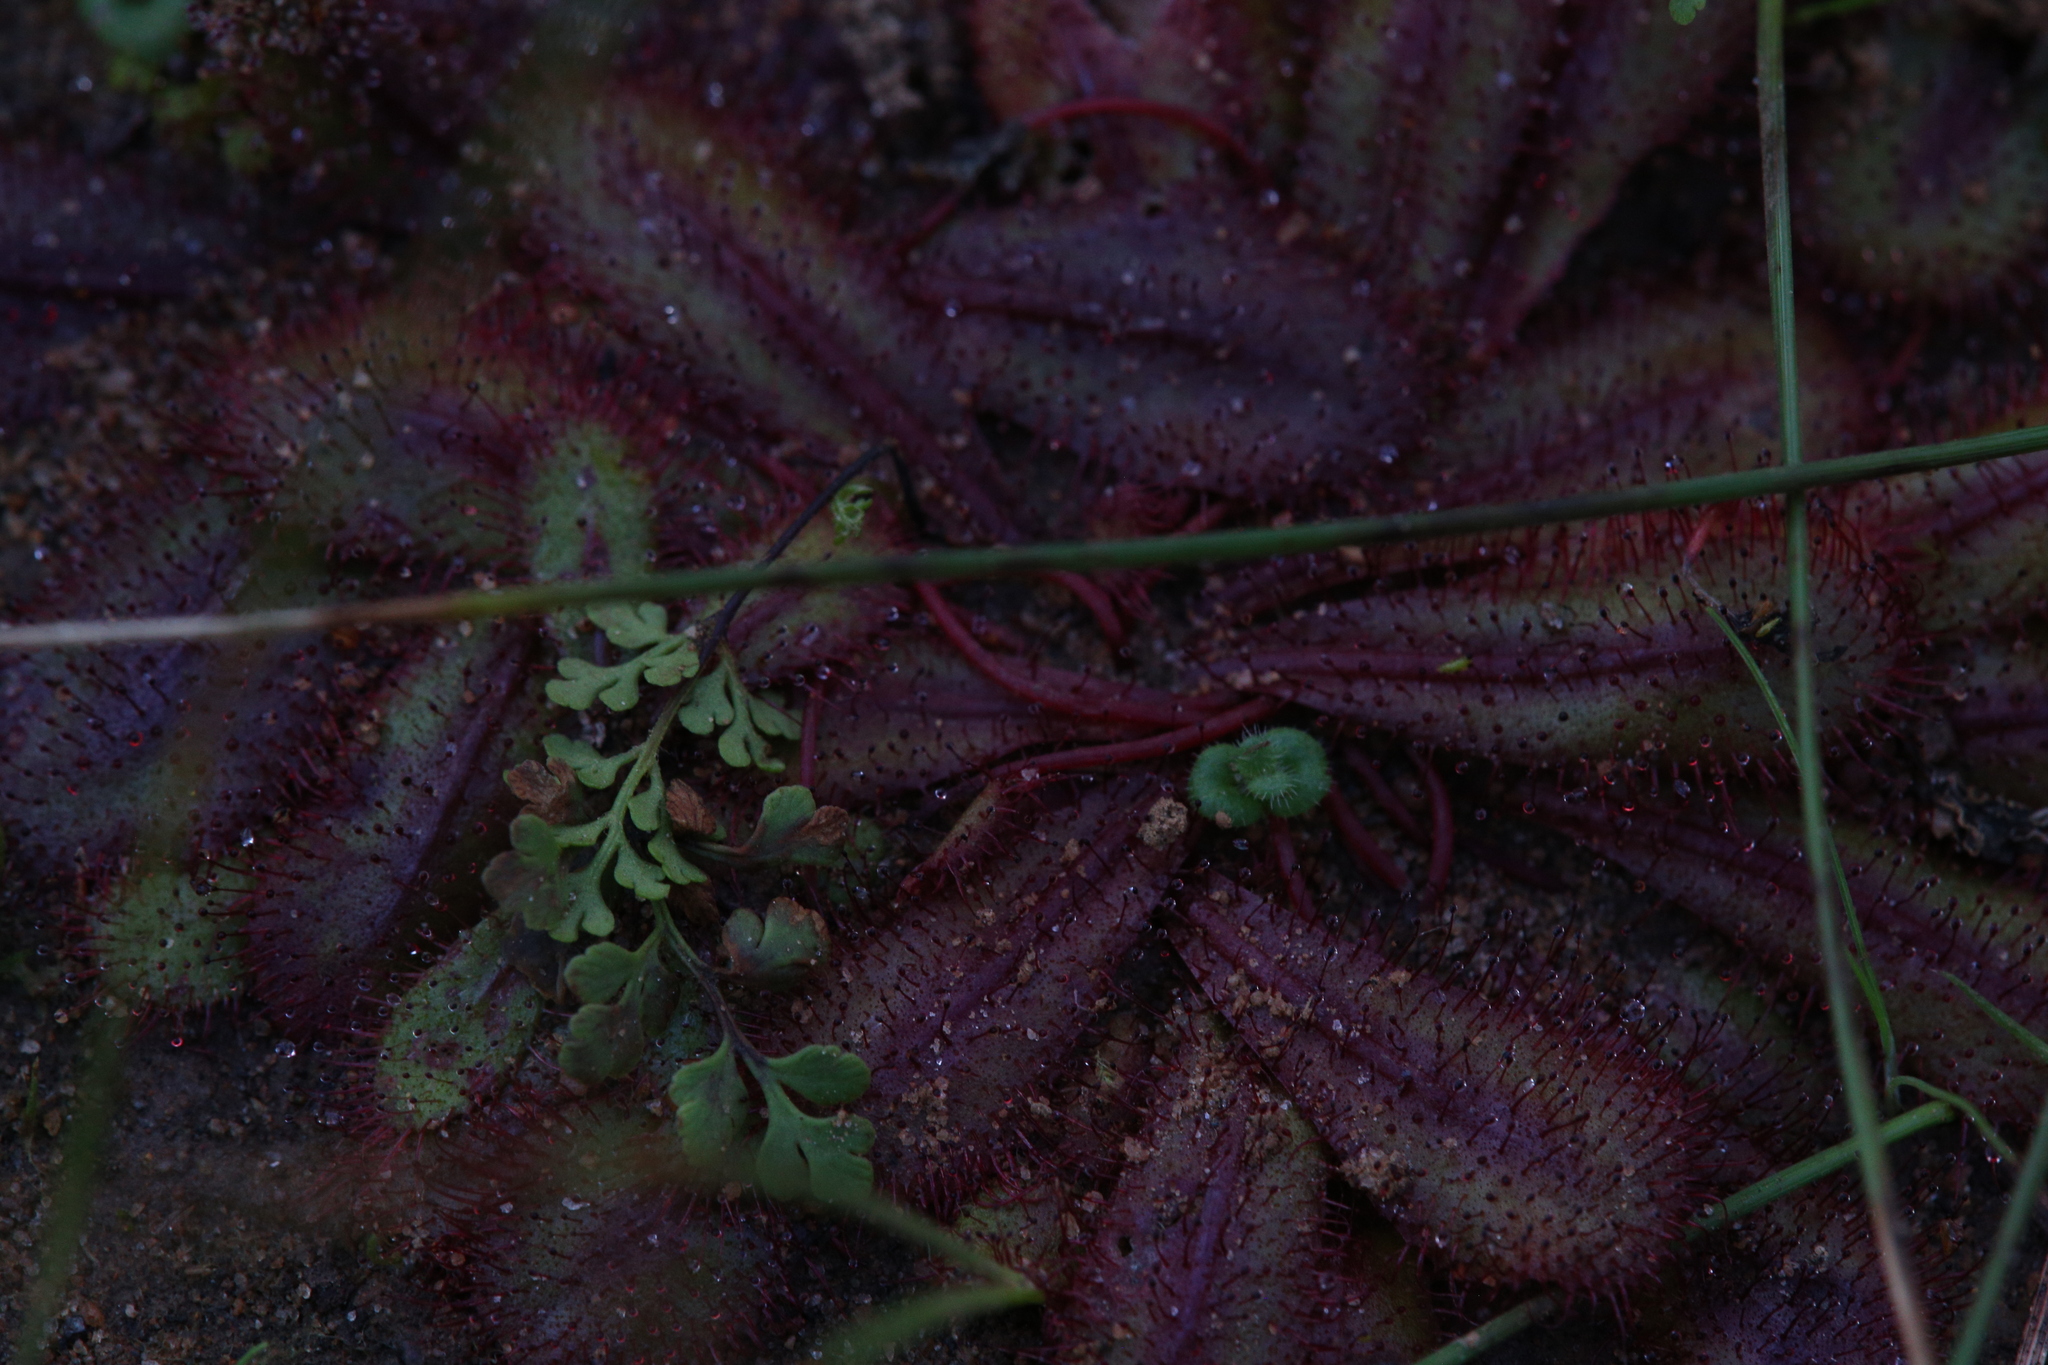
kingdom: Plantae
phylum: Tracheophyta
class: Magnoliopsida
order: Caryophyllales
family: Droseraceae
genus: Drosera
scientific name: Drosera bulbosa
